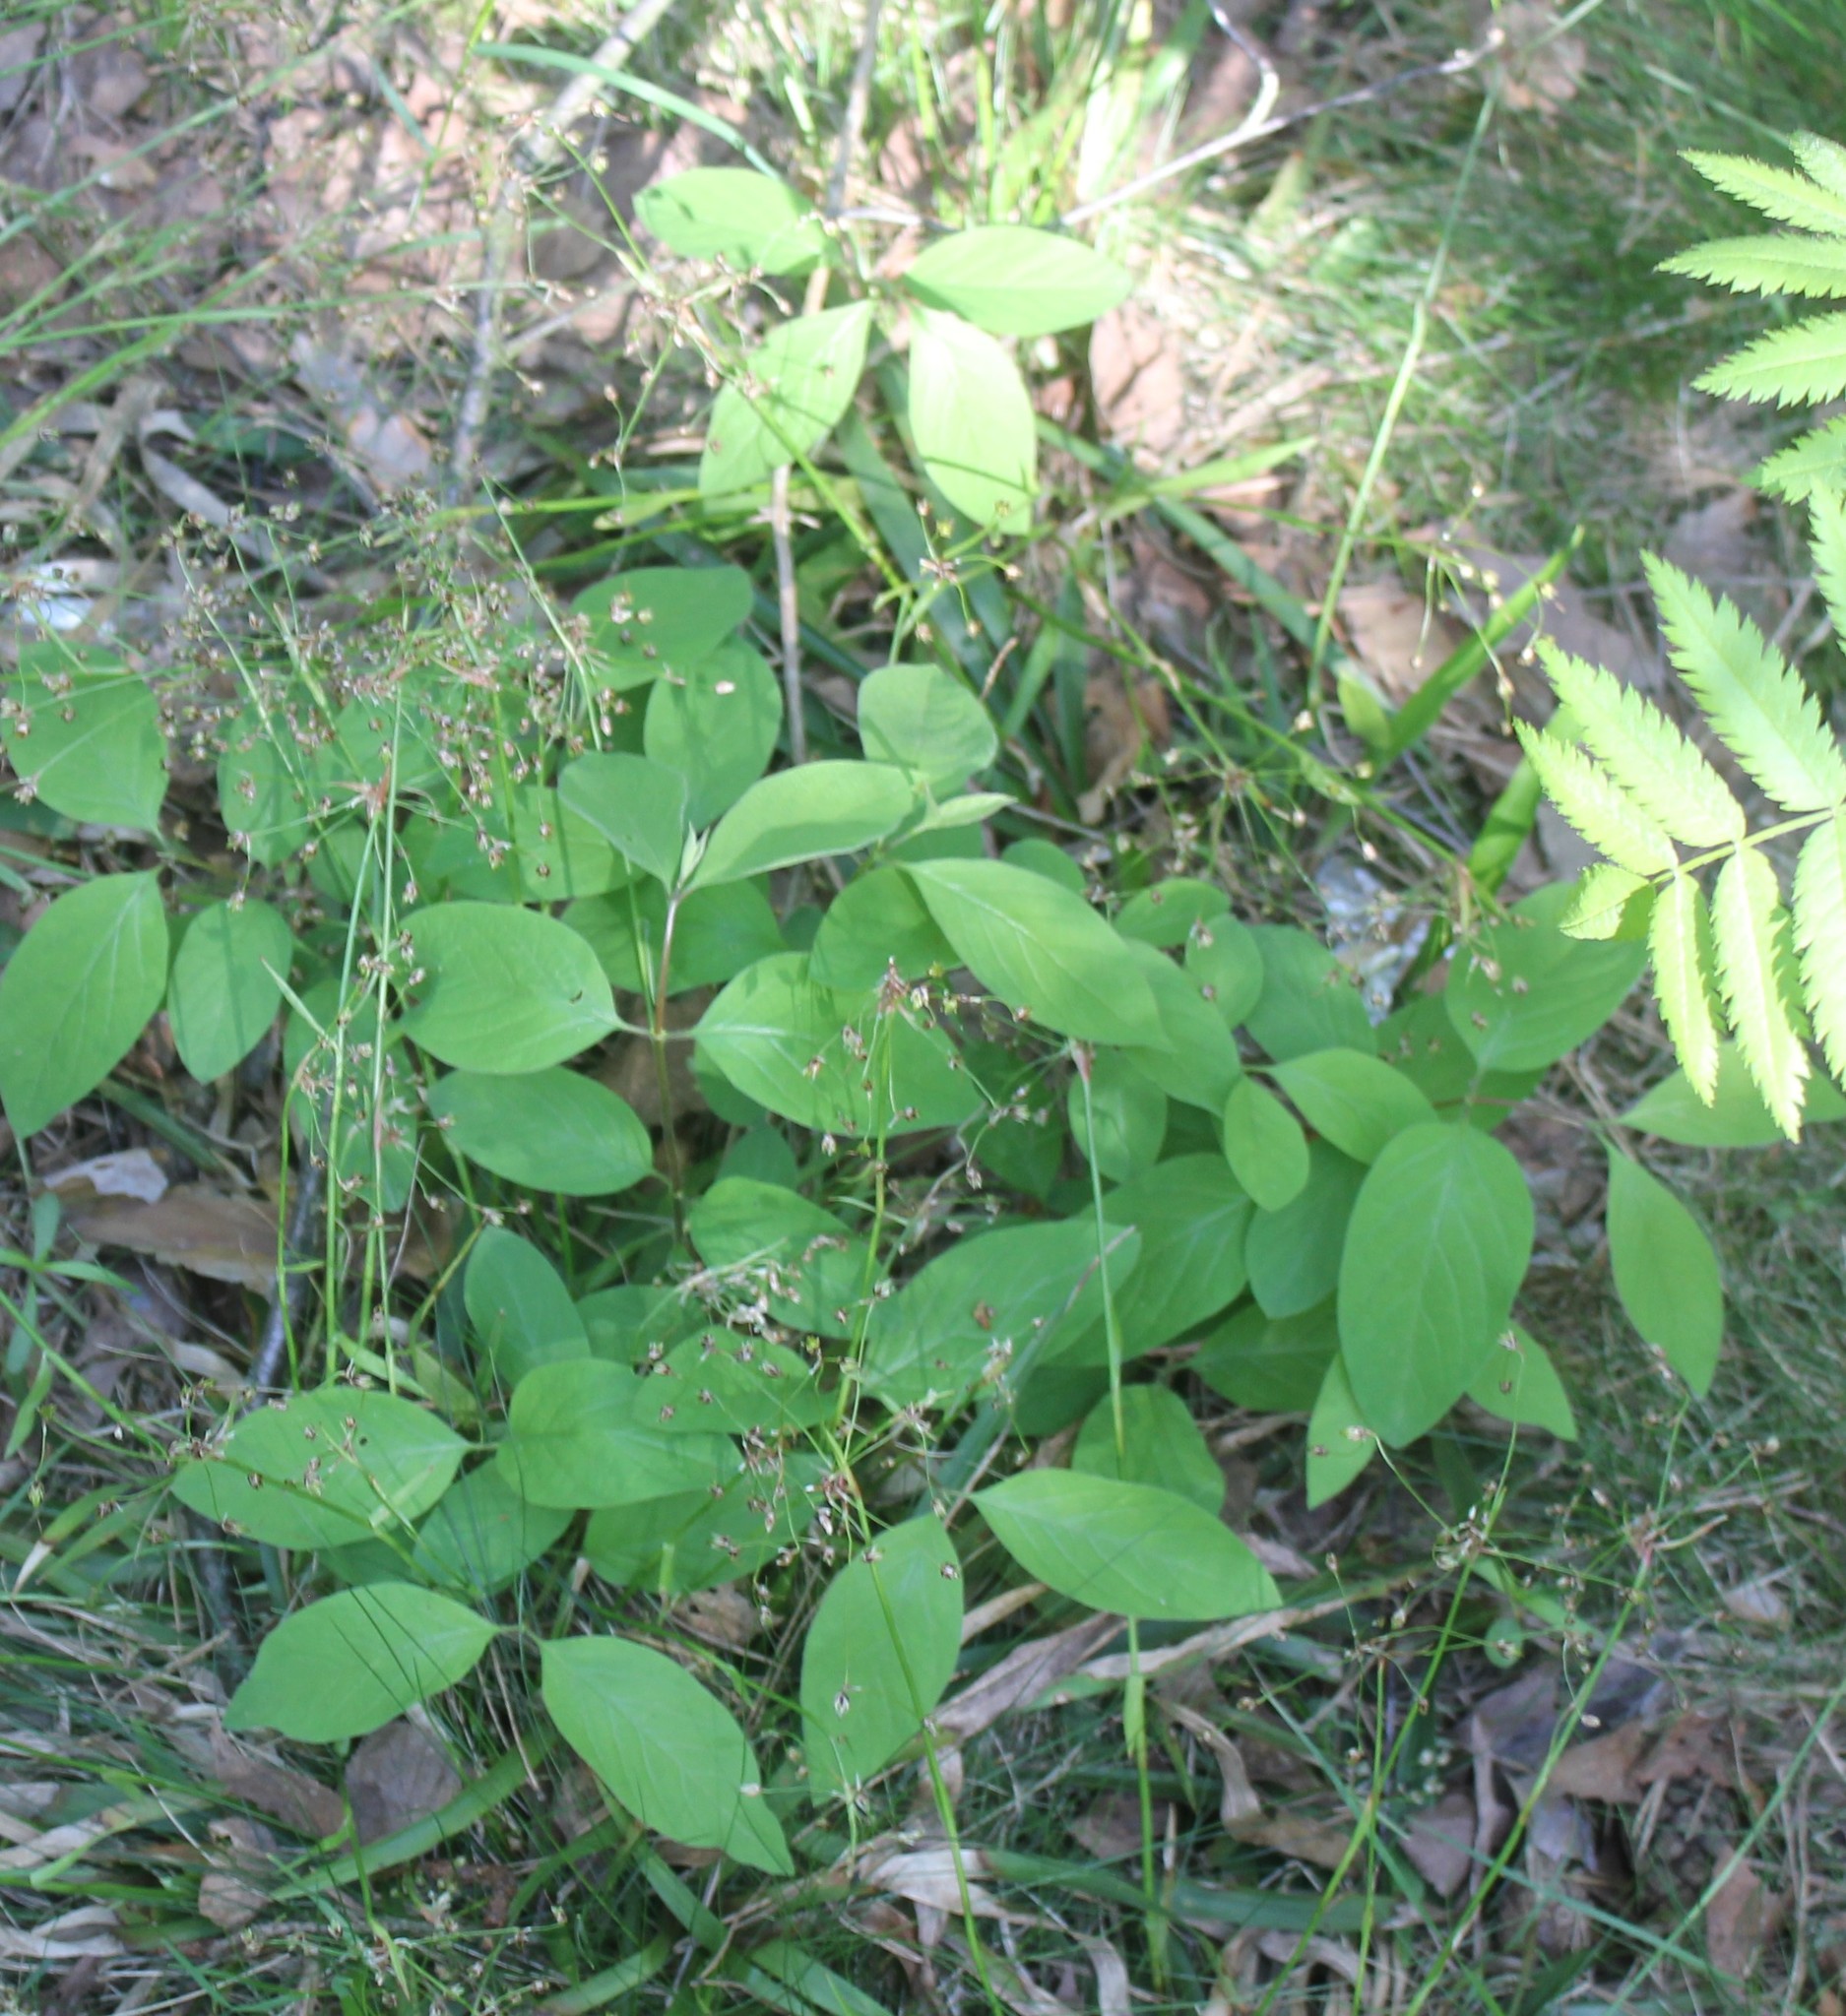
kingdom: Plantae
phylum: Tracheophyta
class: Magnoliopsida
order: Dipsacales
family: Caprifoliaceae
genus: Lonicera
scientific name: Lonicera xylosteum
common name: Fly honeysuckle
